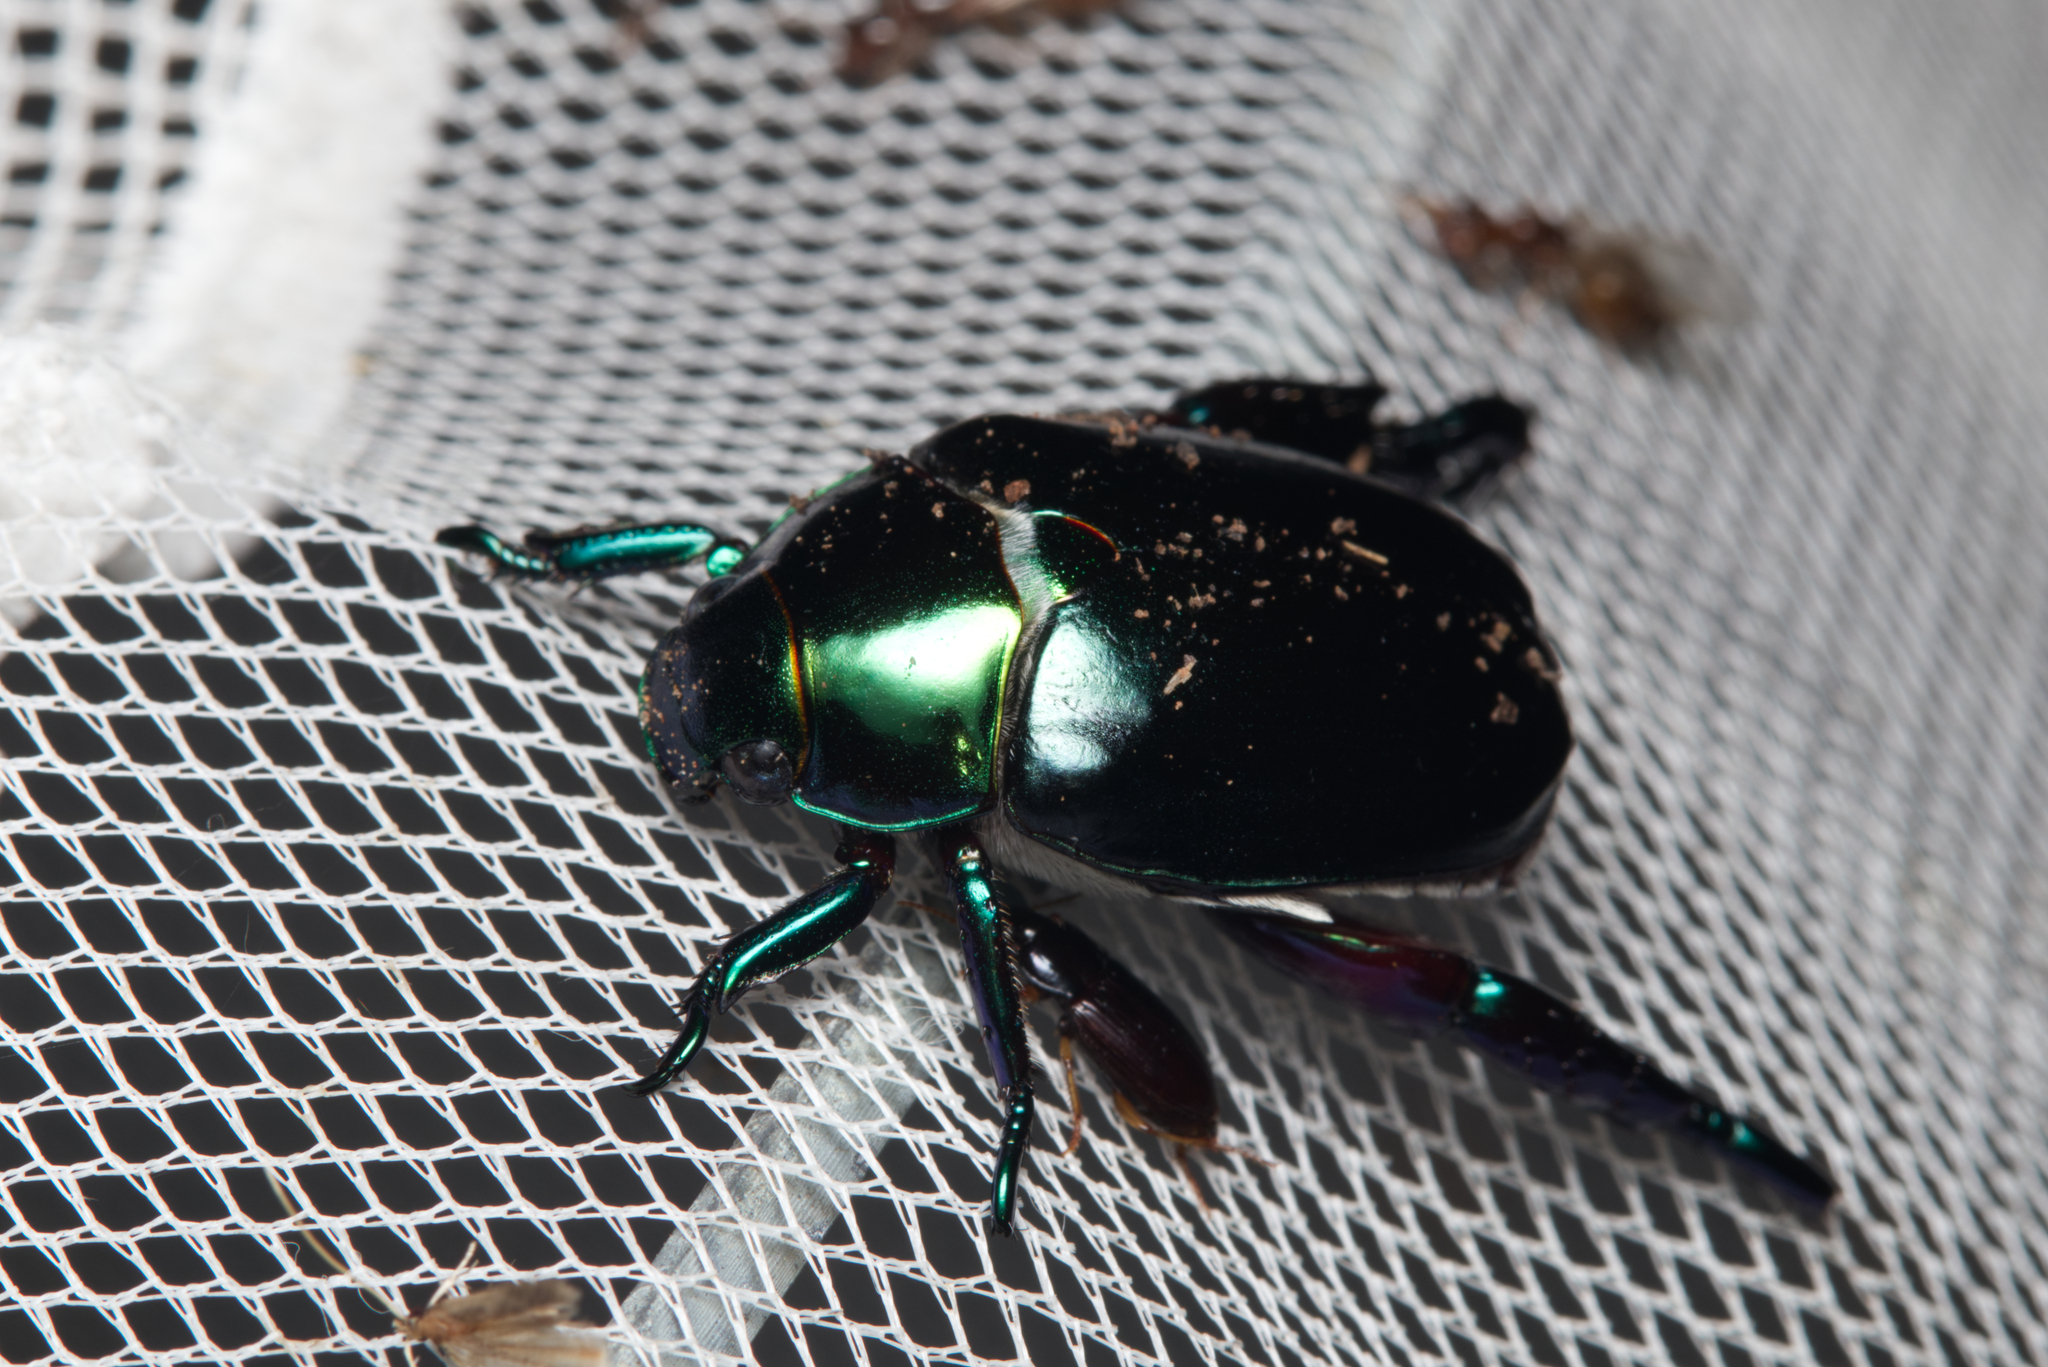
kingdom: Animalia
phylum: Arthropoda
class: Insecta
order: Coleoptera
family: Scarabaeidae
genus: Repsimus
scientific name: Repsimus aeneus
